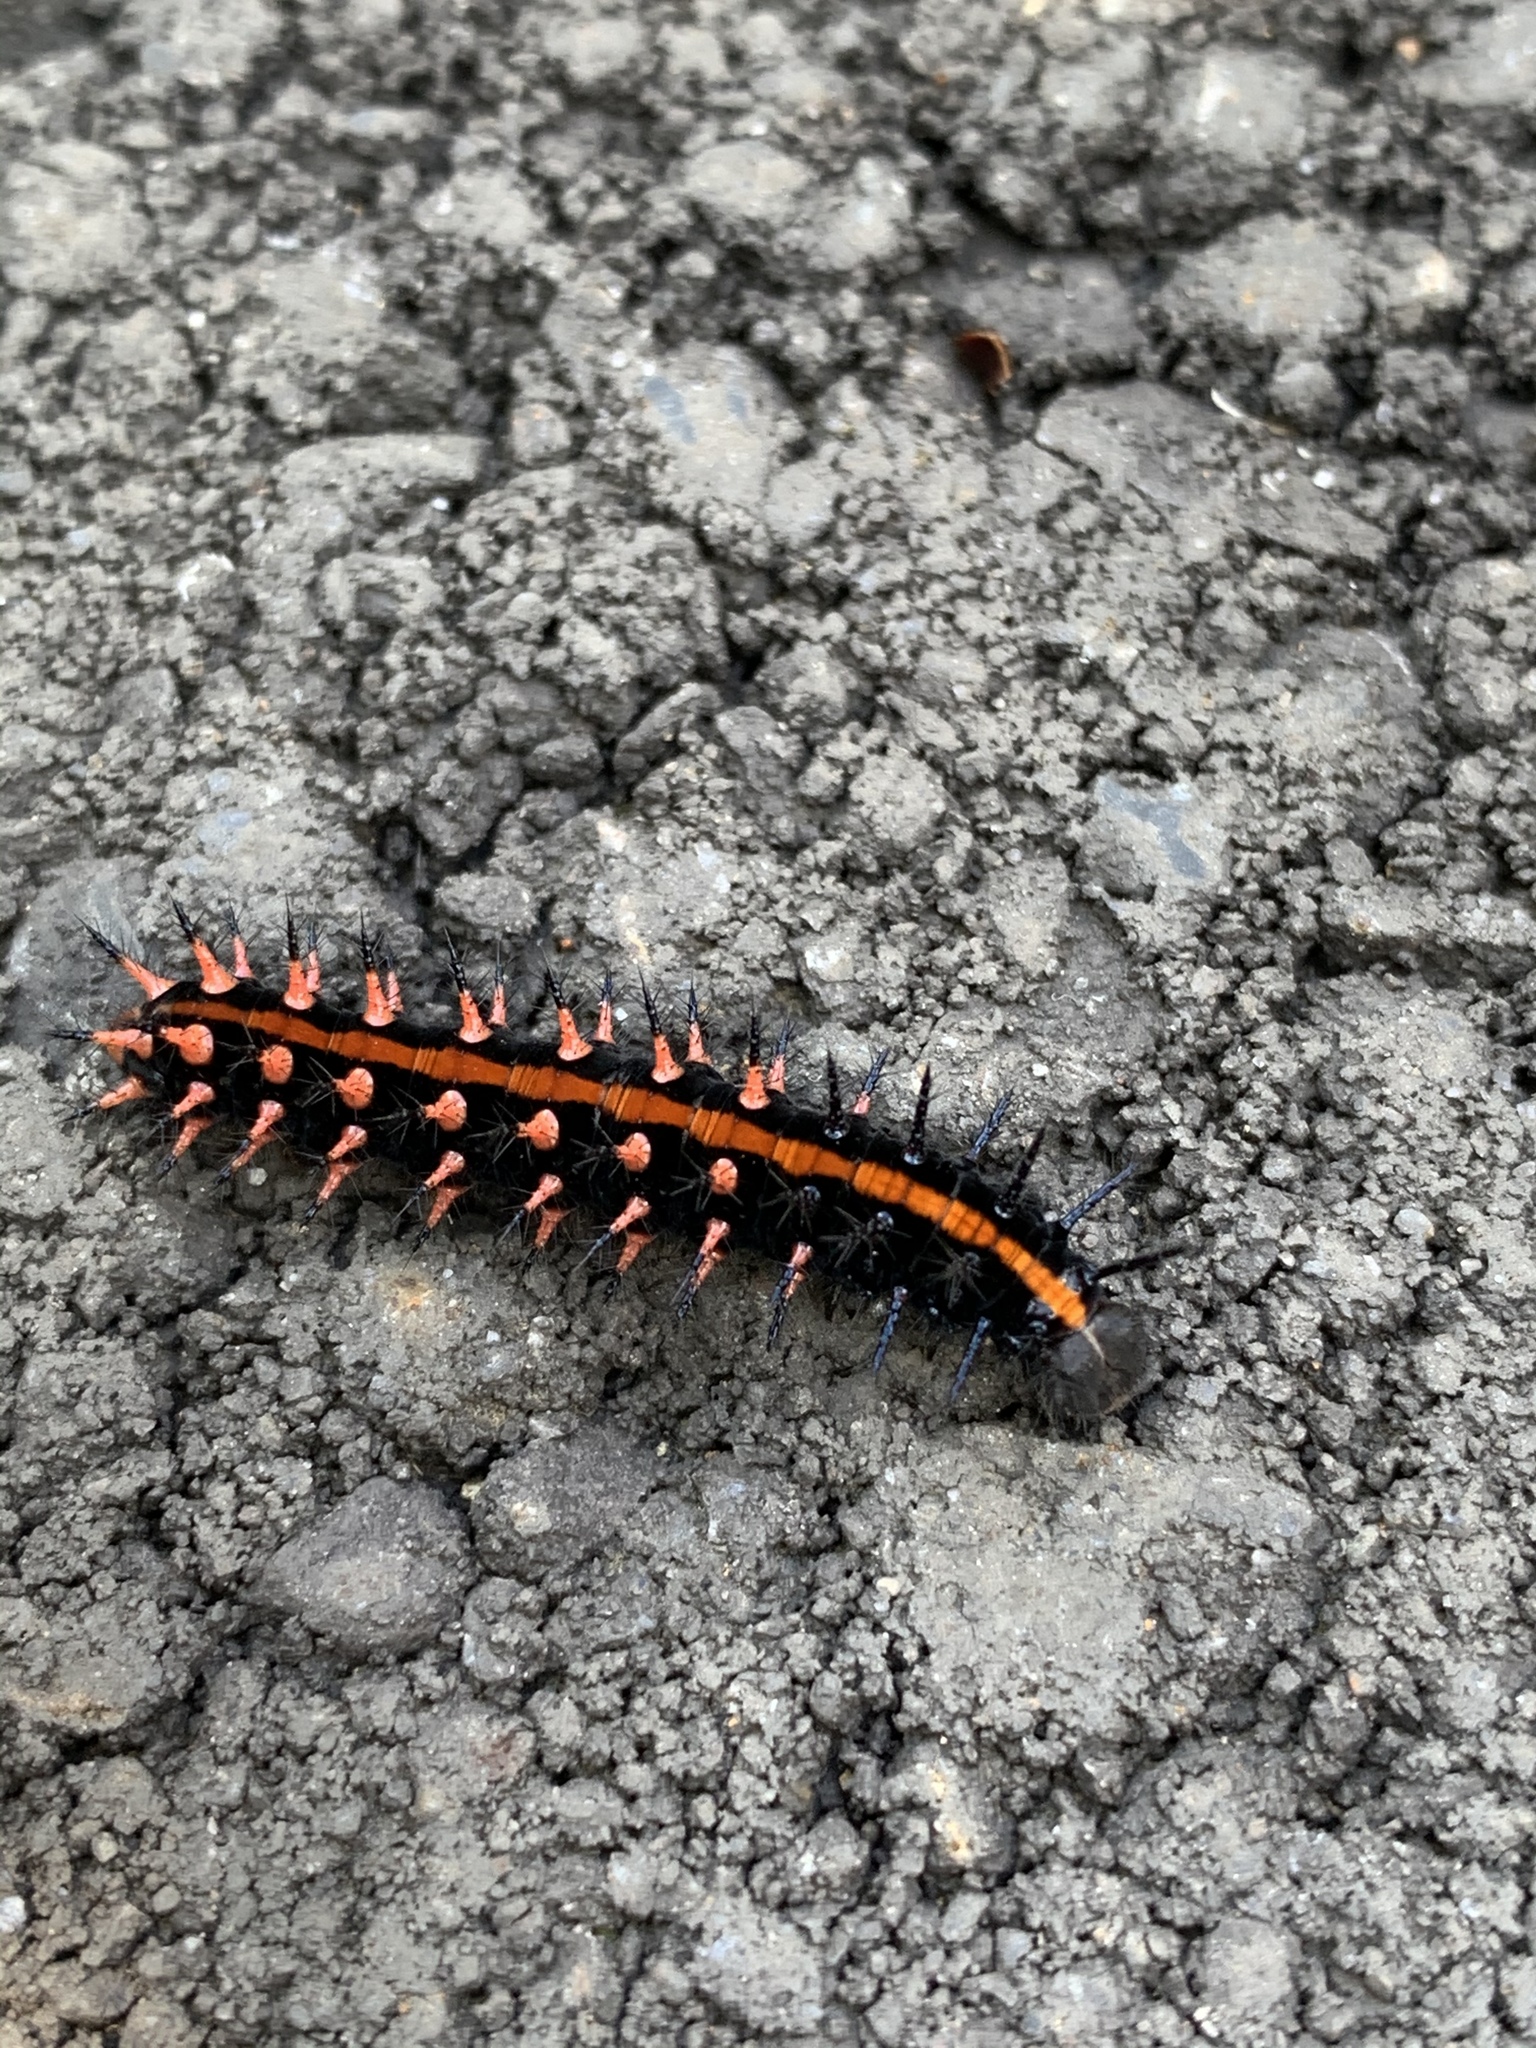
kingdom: Animalia
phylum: Arthropoda
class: Insecta
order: Lepidoptera
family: Nymphalidae
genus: Argynnis
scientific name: Argynnis hyperbius
